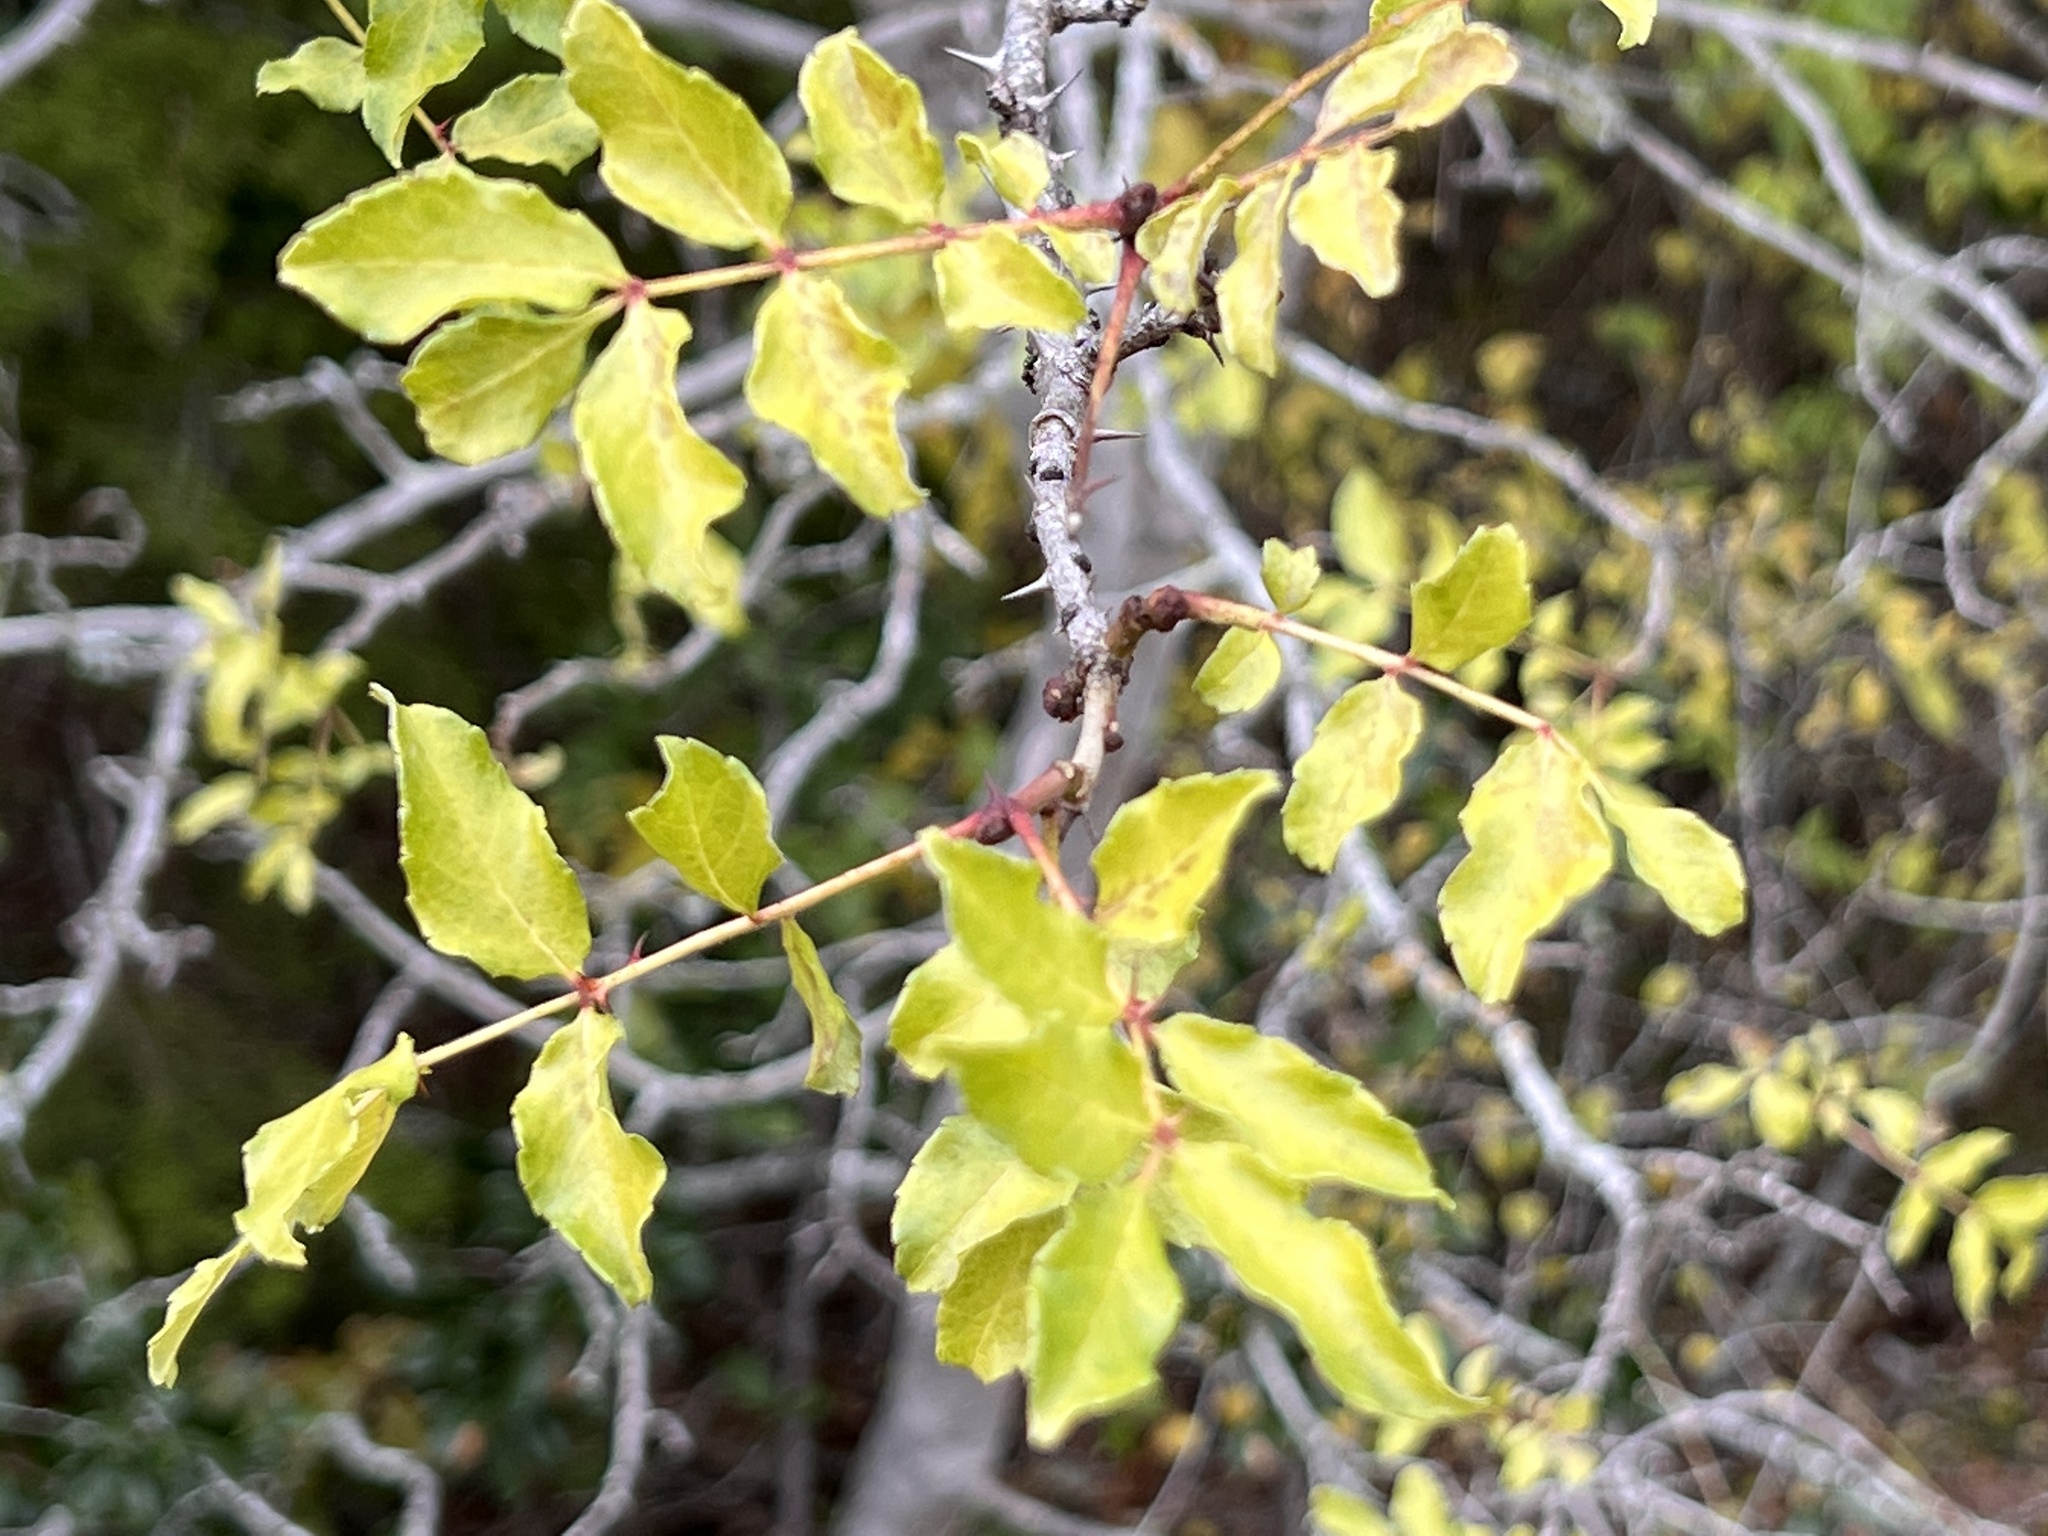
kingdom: Plantae
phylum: Tracheophyta
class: Magnoliopsida
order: Sapindales
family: Rutaceae
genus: Zanthoxylum
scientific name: Zanthoxylum clava-herculis
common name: Hercules'-club
